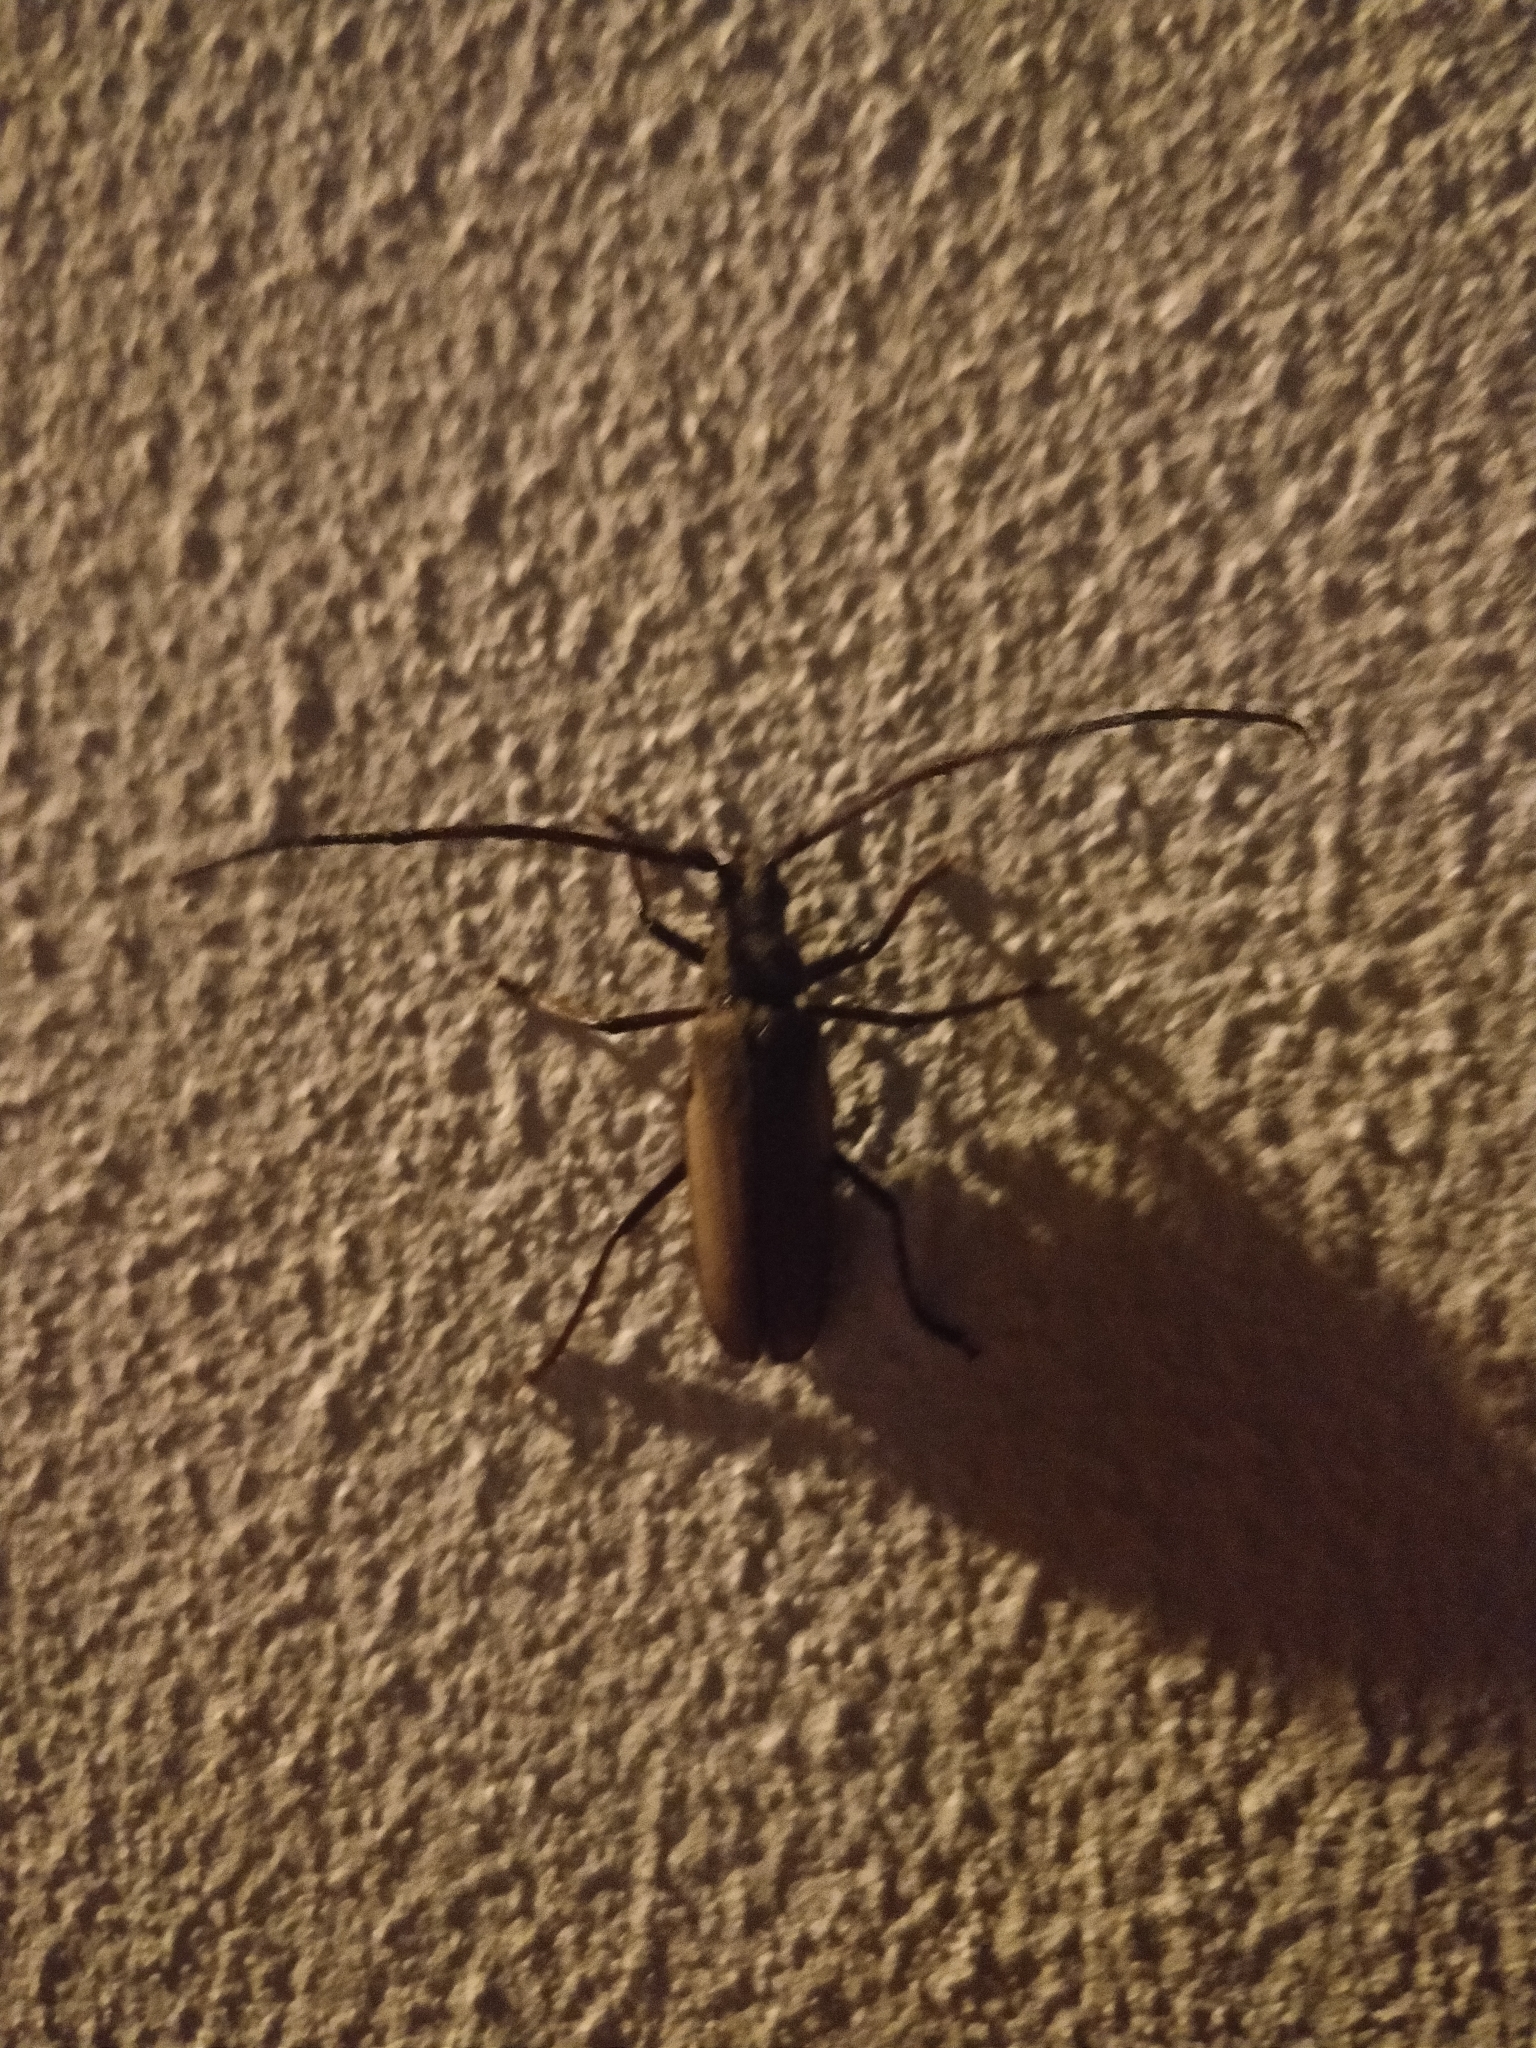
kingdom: Animalia
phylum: Arthropoda
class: Insecta
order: Coleoptera
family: Cerambycidae
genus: Aegosoma
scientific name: Aegosoma scabricorne
